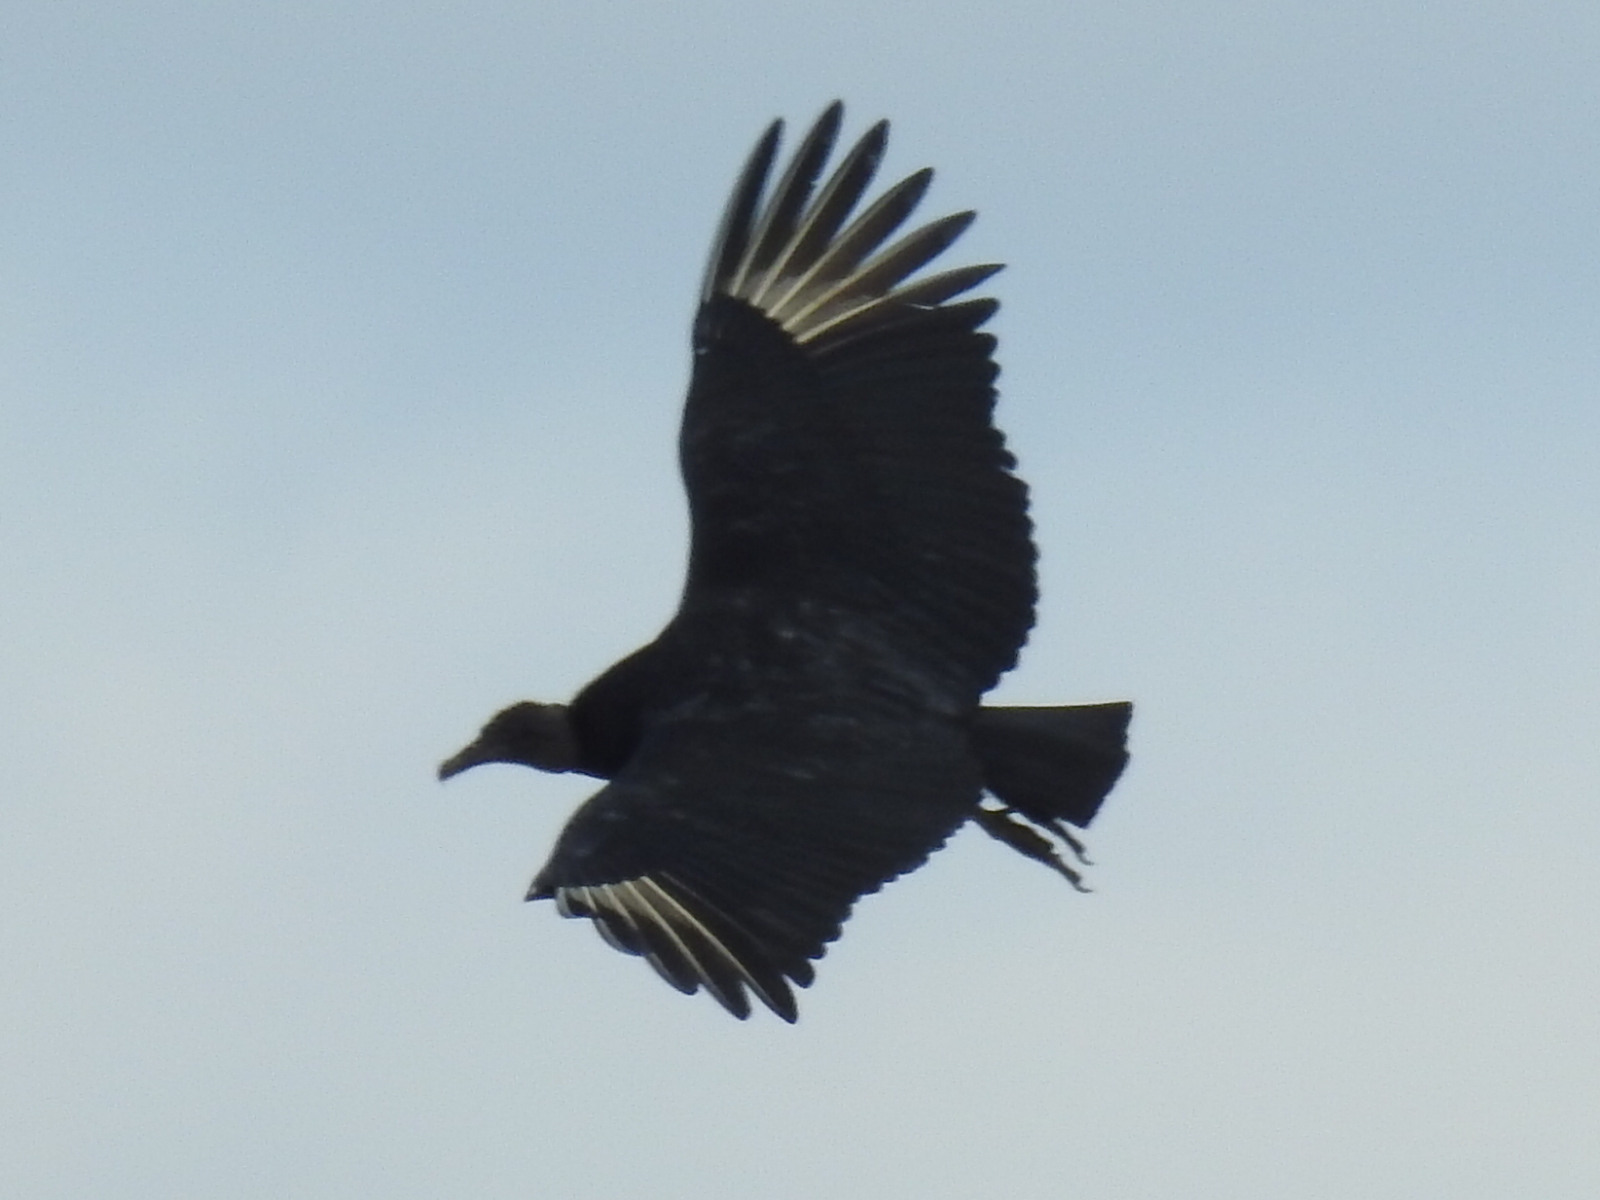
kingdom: Animalia
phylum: Chordata
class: Aves
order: Accipitriformes
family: Cathartidae
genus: Coragyps
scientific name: Coragyps atratus
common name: Black vulture
